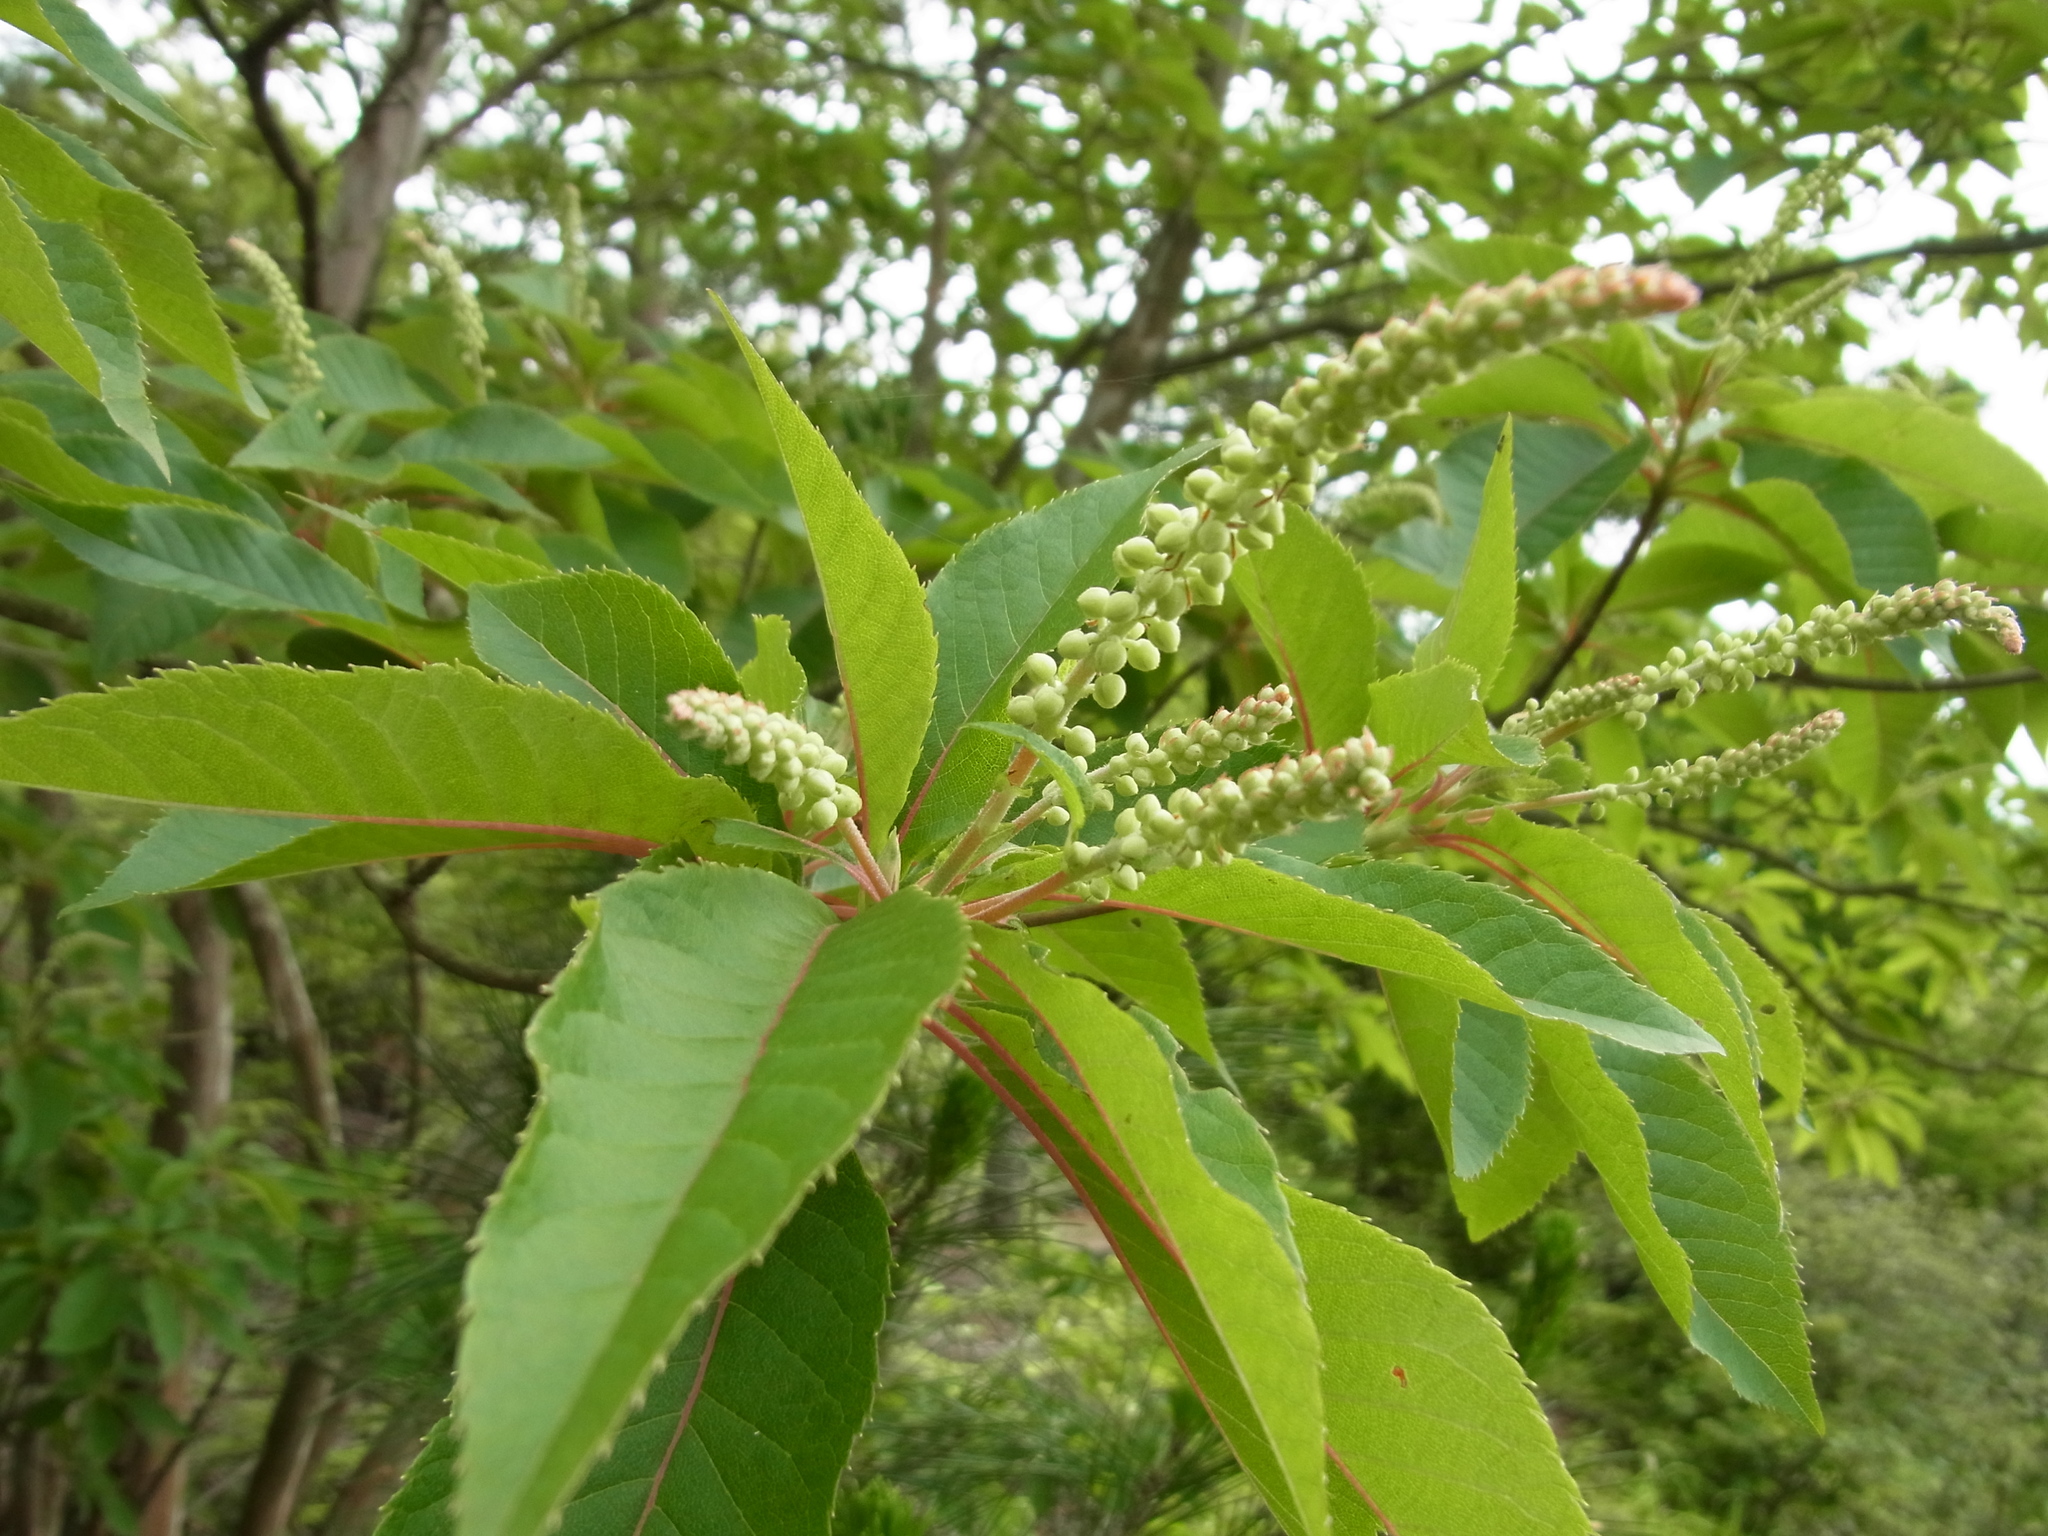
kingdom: Plantae
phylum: Tracheophyta
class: Magnoliopsida
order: Ericales
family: Clethraceae
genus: Clethra
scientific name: Clethra barbinervis
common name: Japanese clethra
